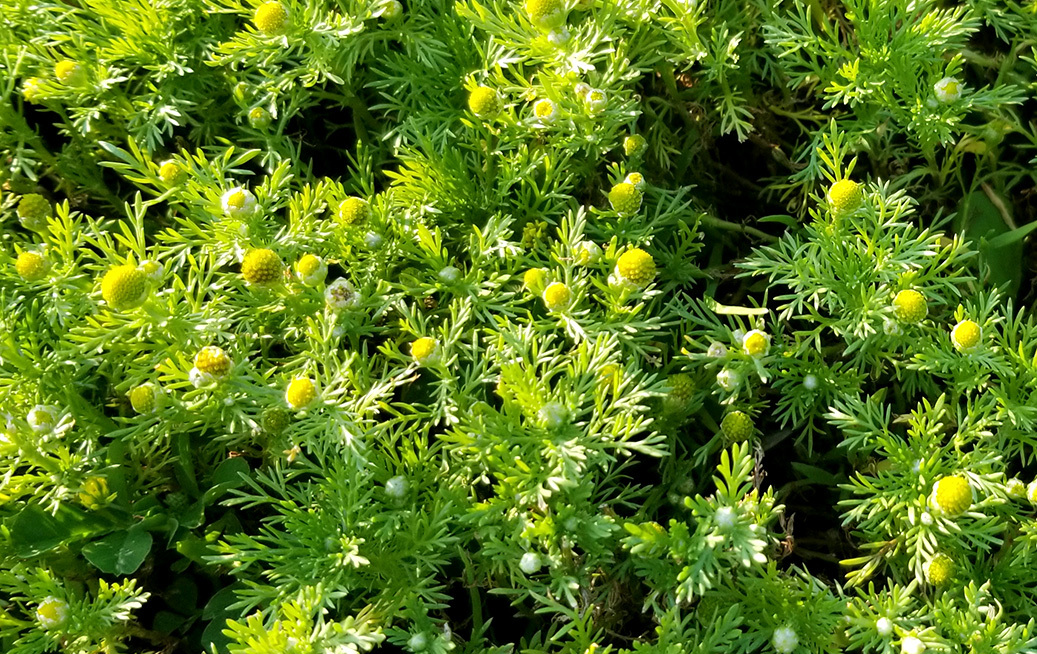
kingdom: Plantae
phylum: Tracheophyta
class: Magnoliopsida
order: Asterales
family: Asteraceae
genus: Matricaria
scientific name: Matricaria discoidea
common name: Disc mayweed
